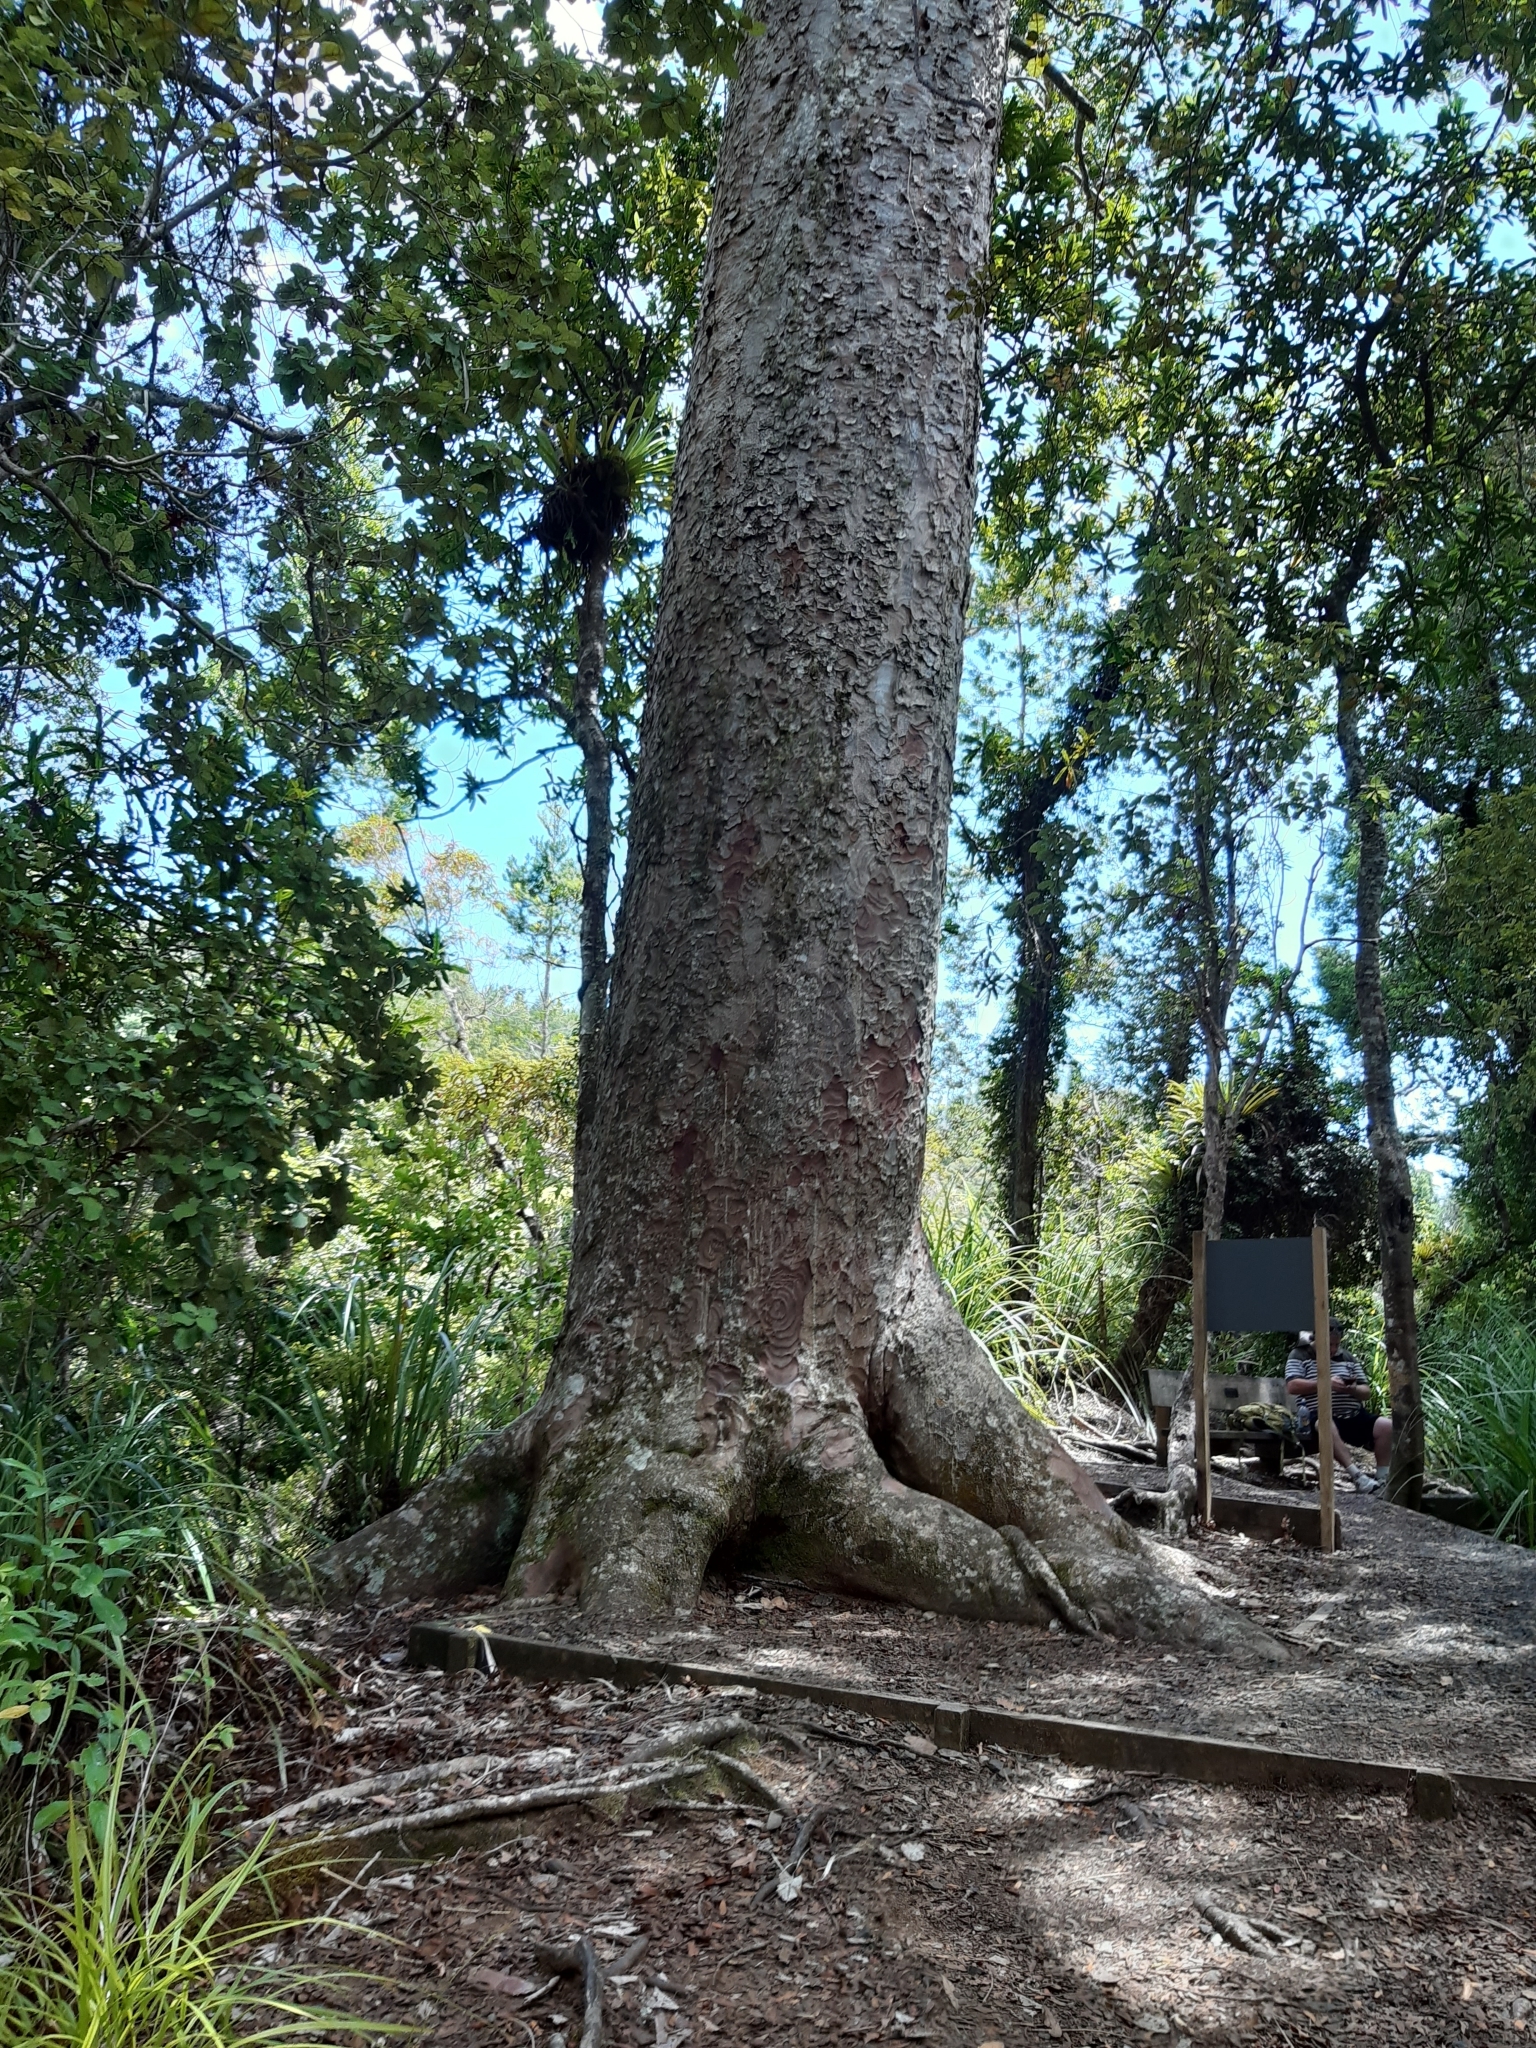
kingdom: Plantae
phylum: Tracheophyta
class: Pinopsida
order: Pinales
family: Araucariaceae
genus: Agathis
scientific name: Agathis australis
